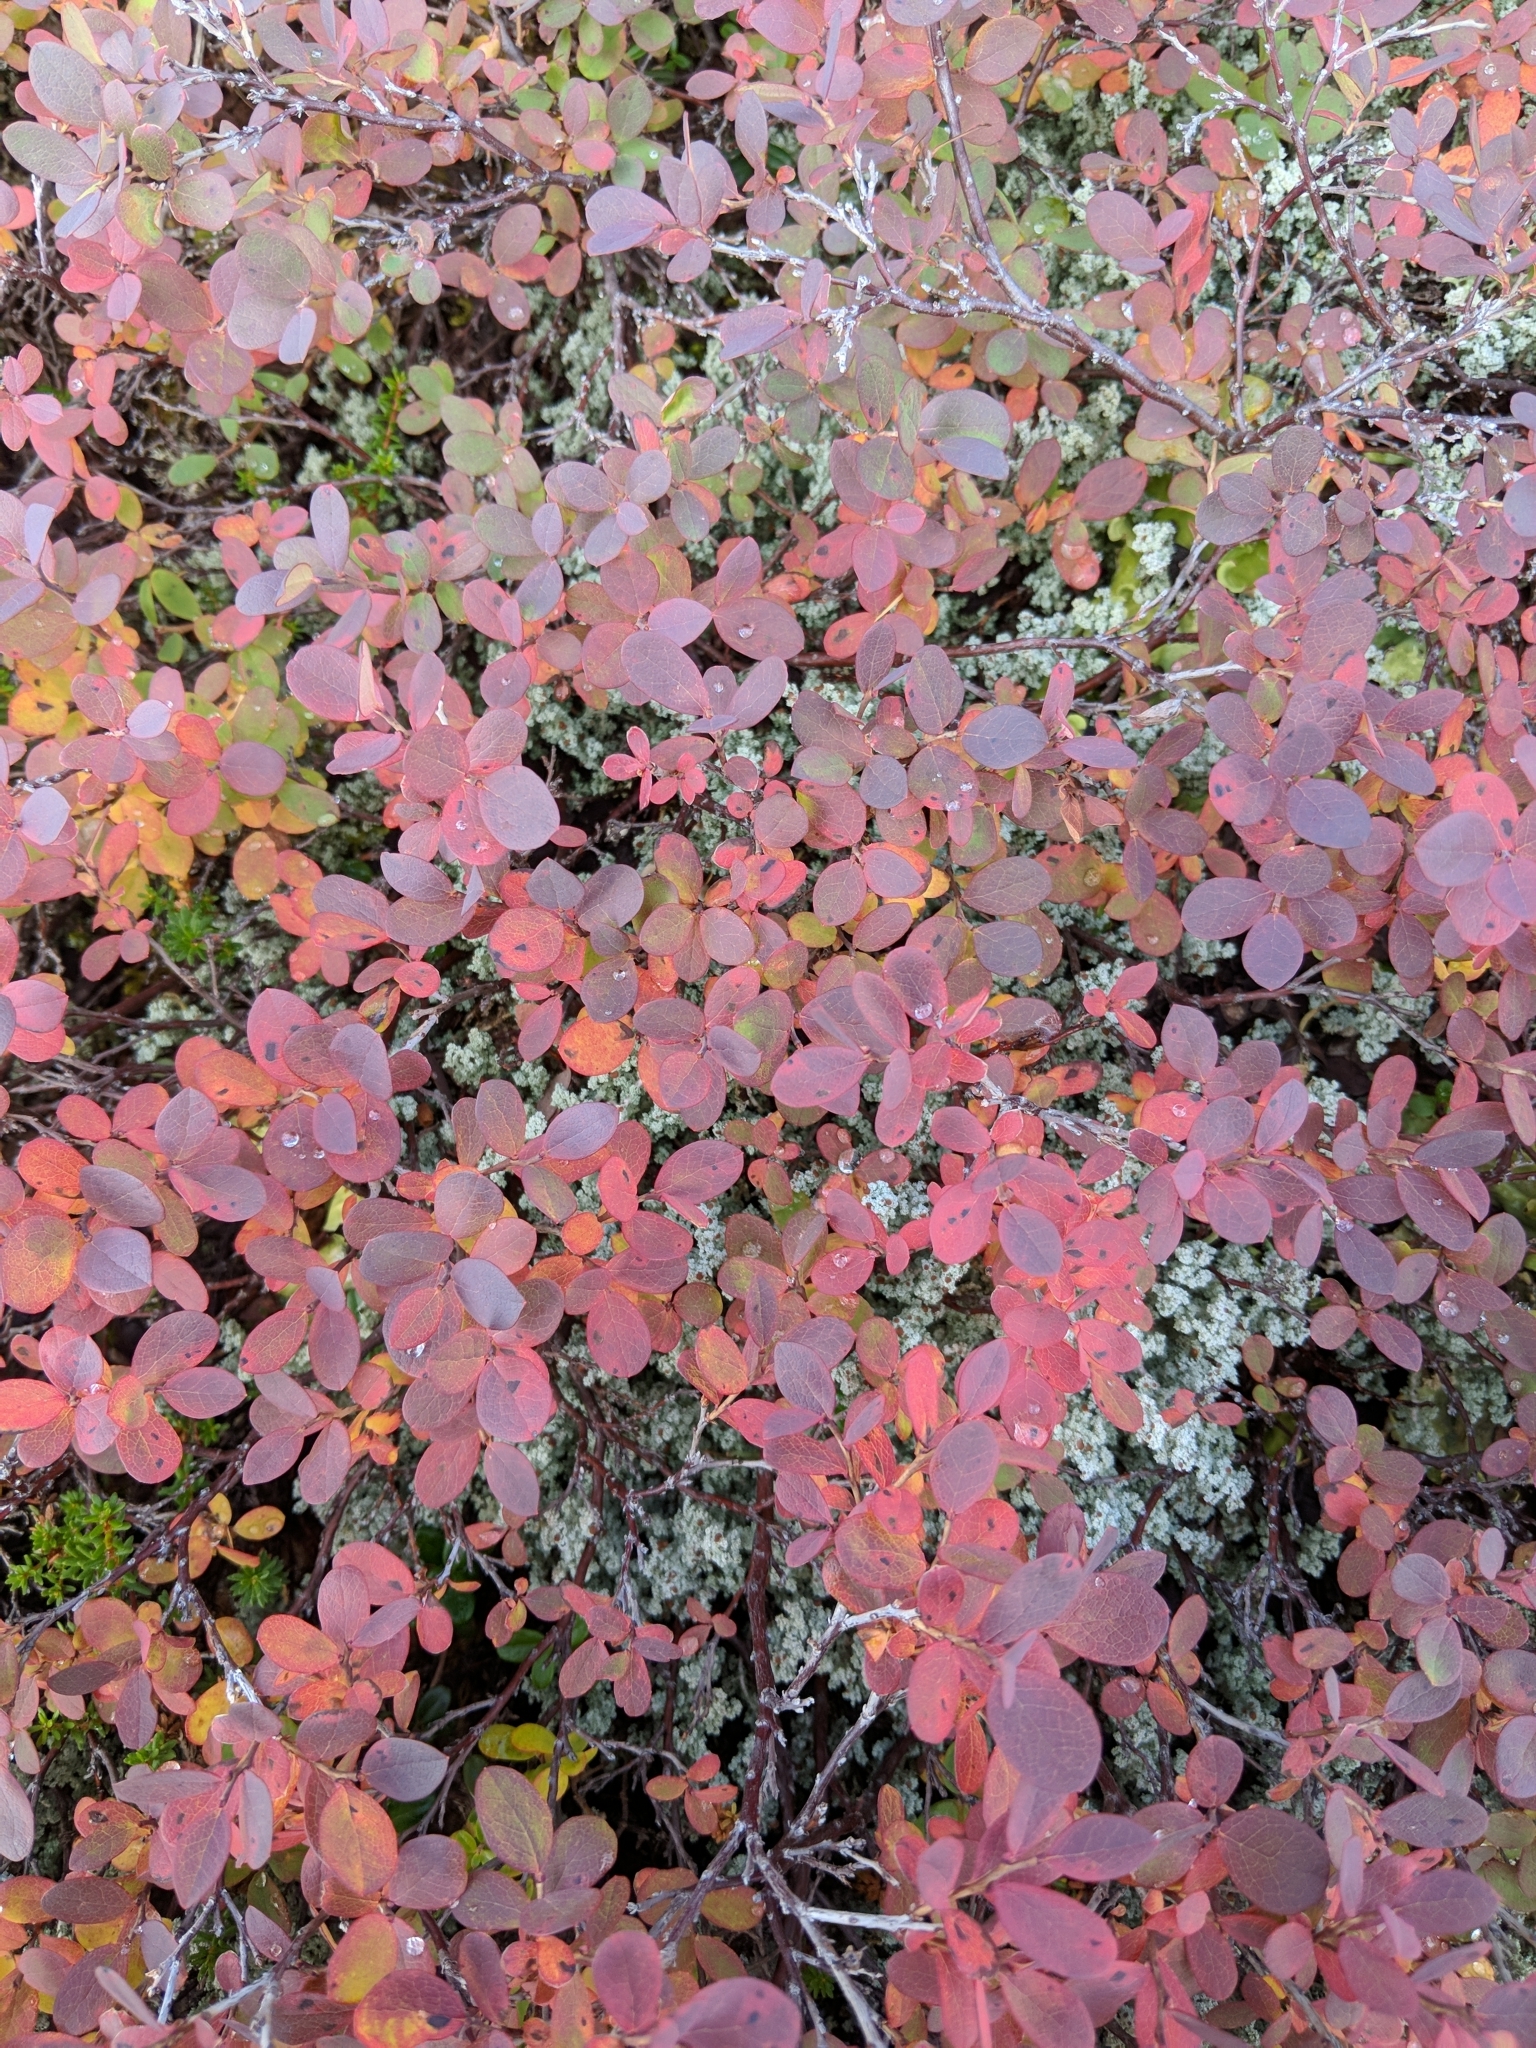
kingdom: Plantae
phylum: Tracheophyta
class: Magnoliopsida
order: Ericales
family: Ericaceae
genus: Vaccinium
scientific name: Vaccinium uliginosum
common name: Bog bilberry
